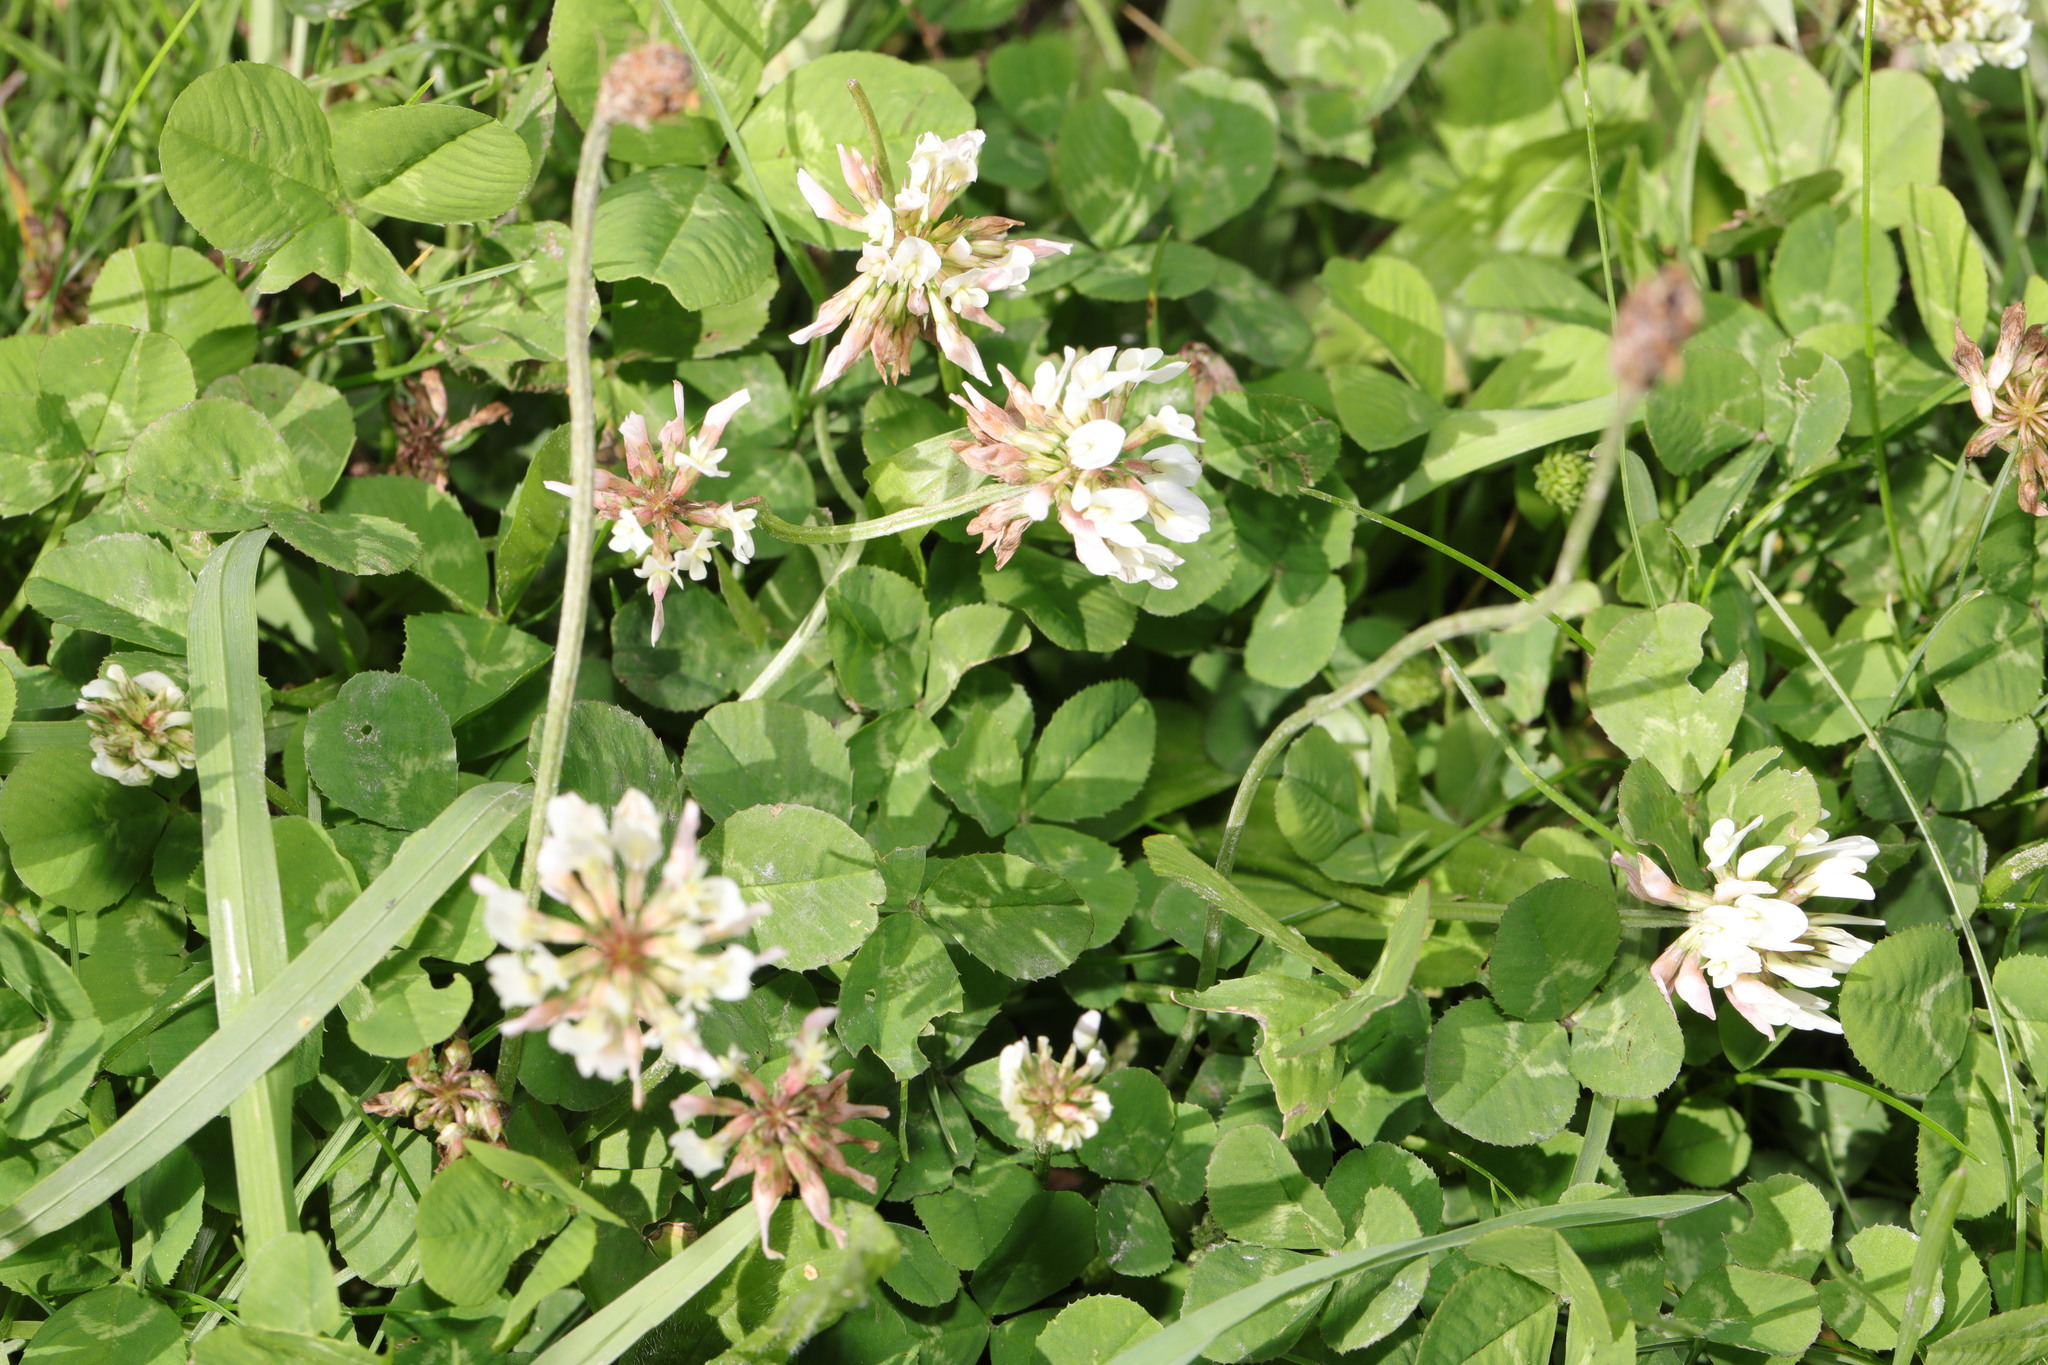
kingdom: Plantae
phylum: Tracheophyta
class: Magnoliopsida
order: Fabales
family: Fabaceae
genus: Trifolium
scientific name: Trifolium repens
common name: White clover
